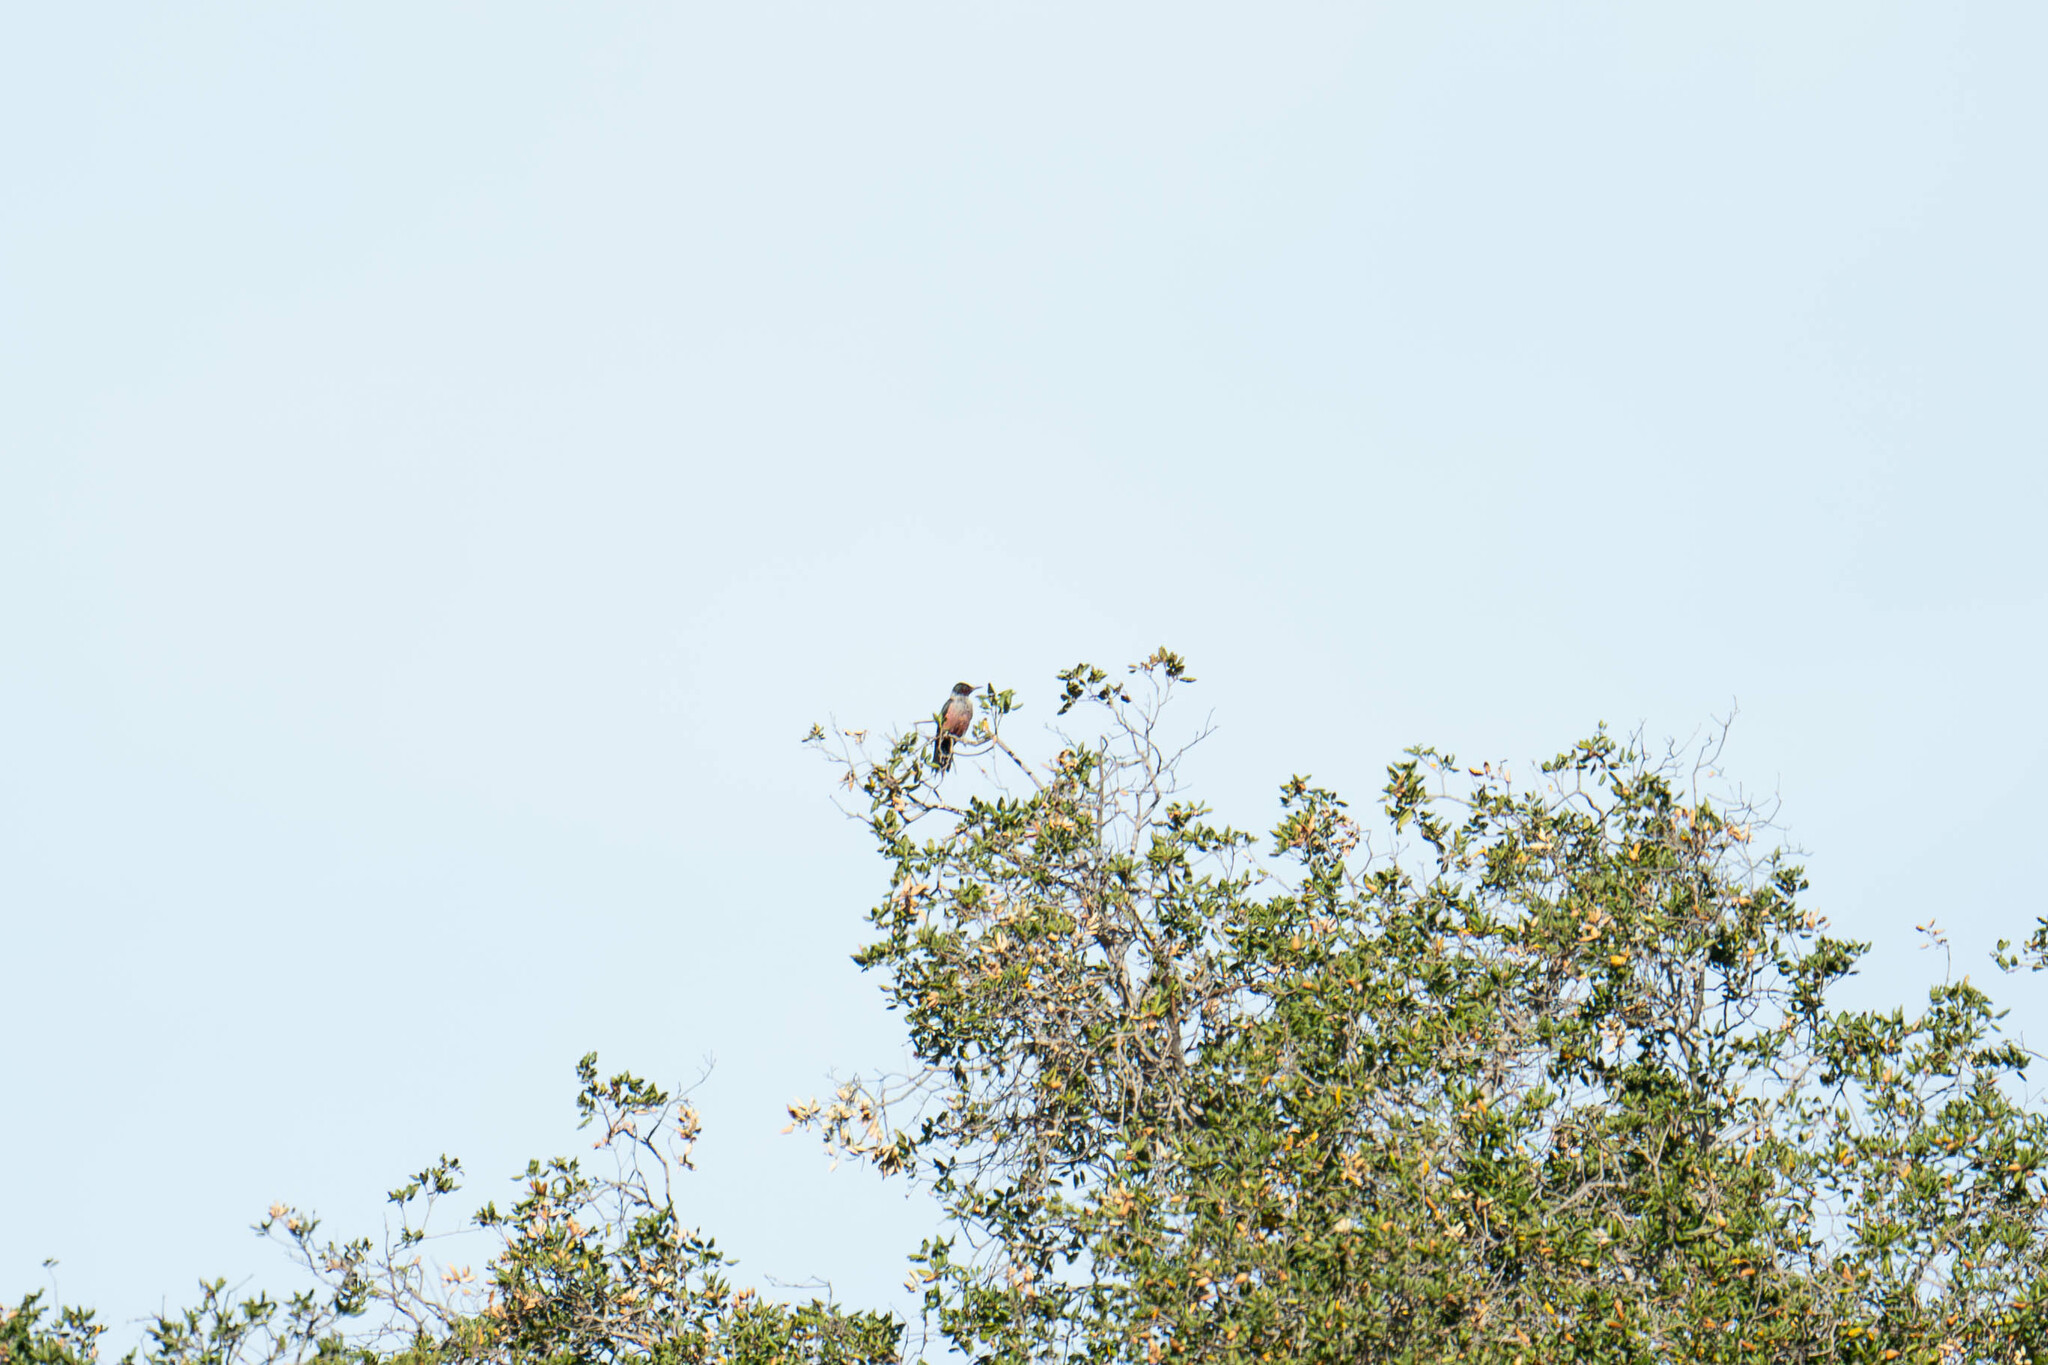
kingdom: Animalia
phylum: Chordata
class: Aves
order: Piciformes
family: Picidae
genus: Melanerpes
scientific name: Melanerpes lewis
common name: Lewis's woodpecker
